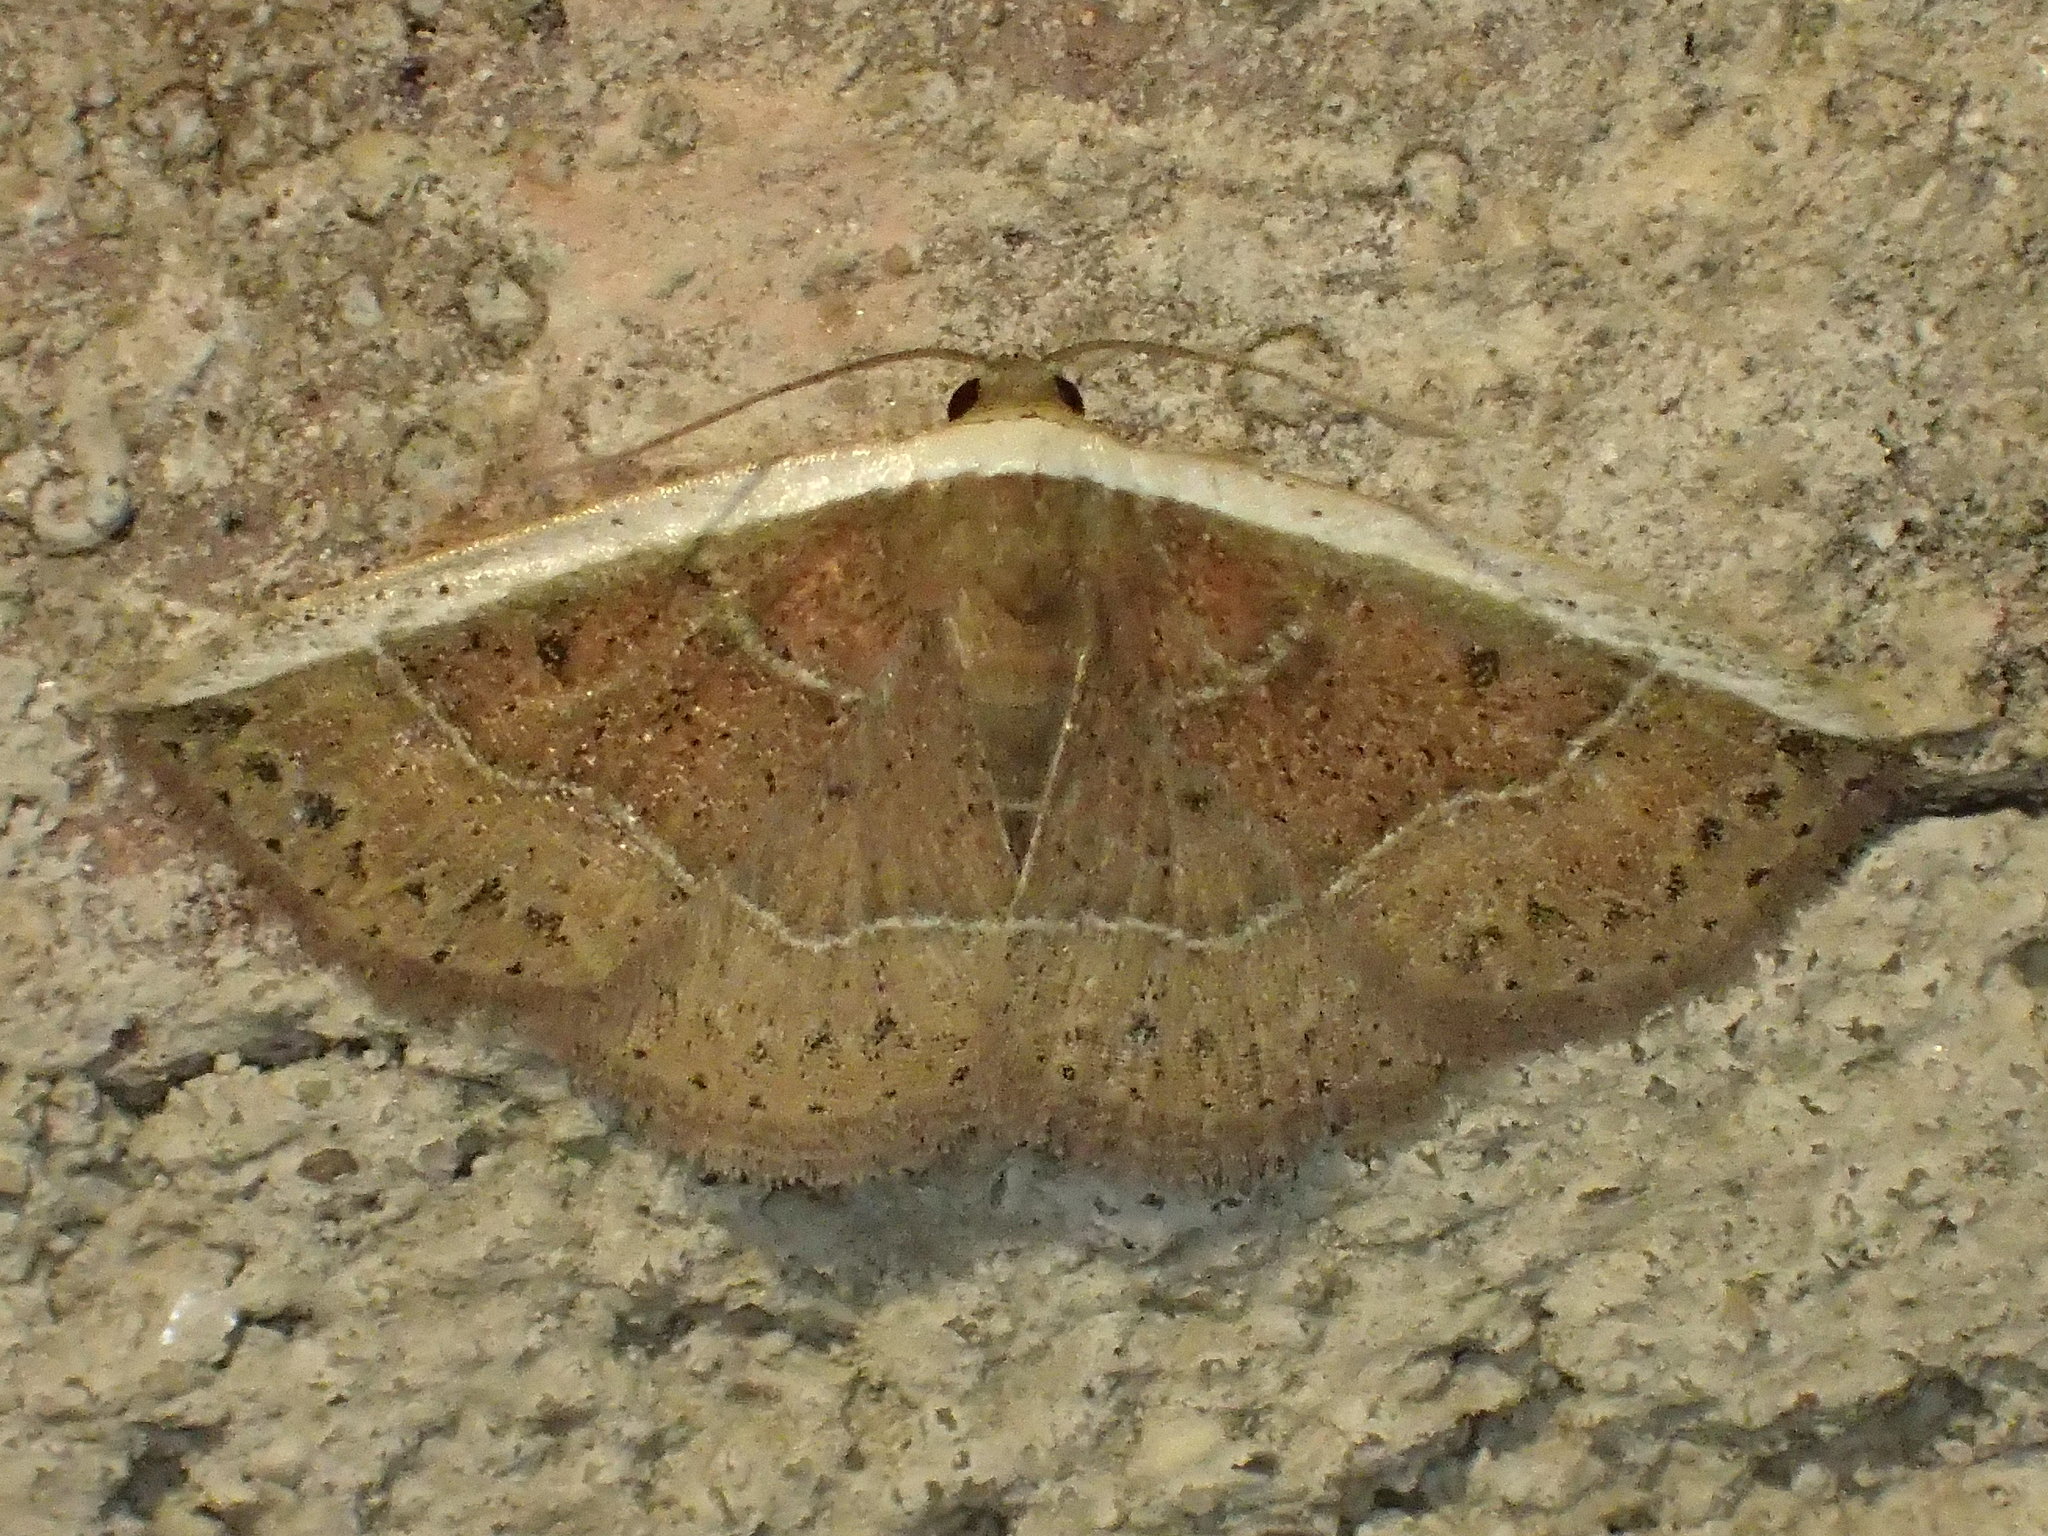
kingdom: Animalia
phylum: Arthropoda
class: Insecta
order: Lepidoptera
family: Noctuidae
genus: Ozarba
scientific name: Ozarba albocostaliata
